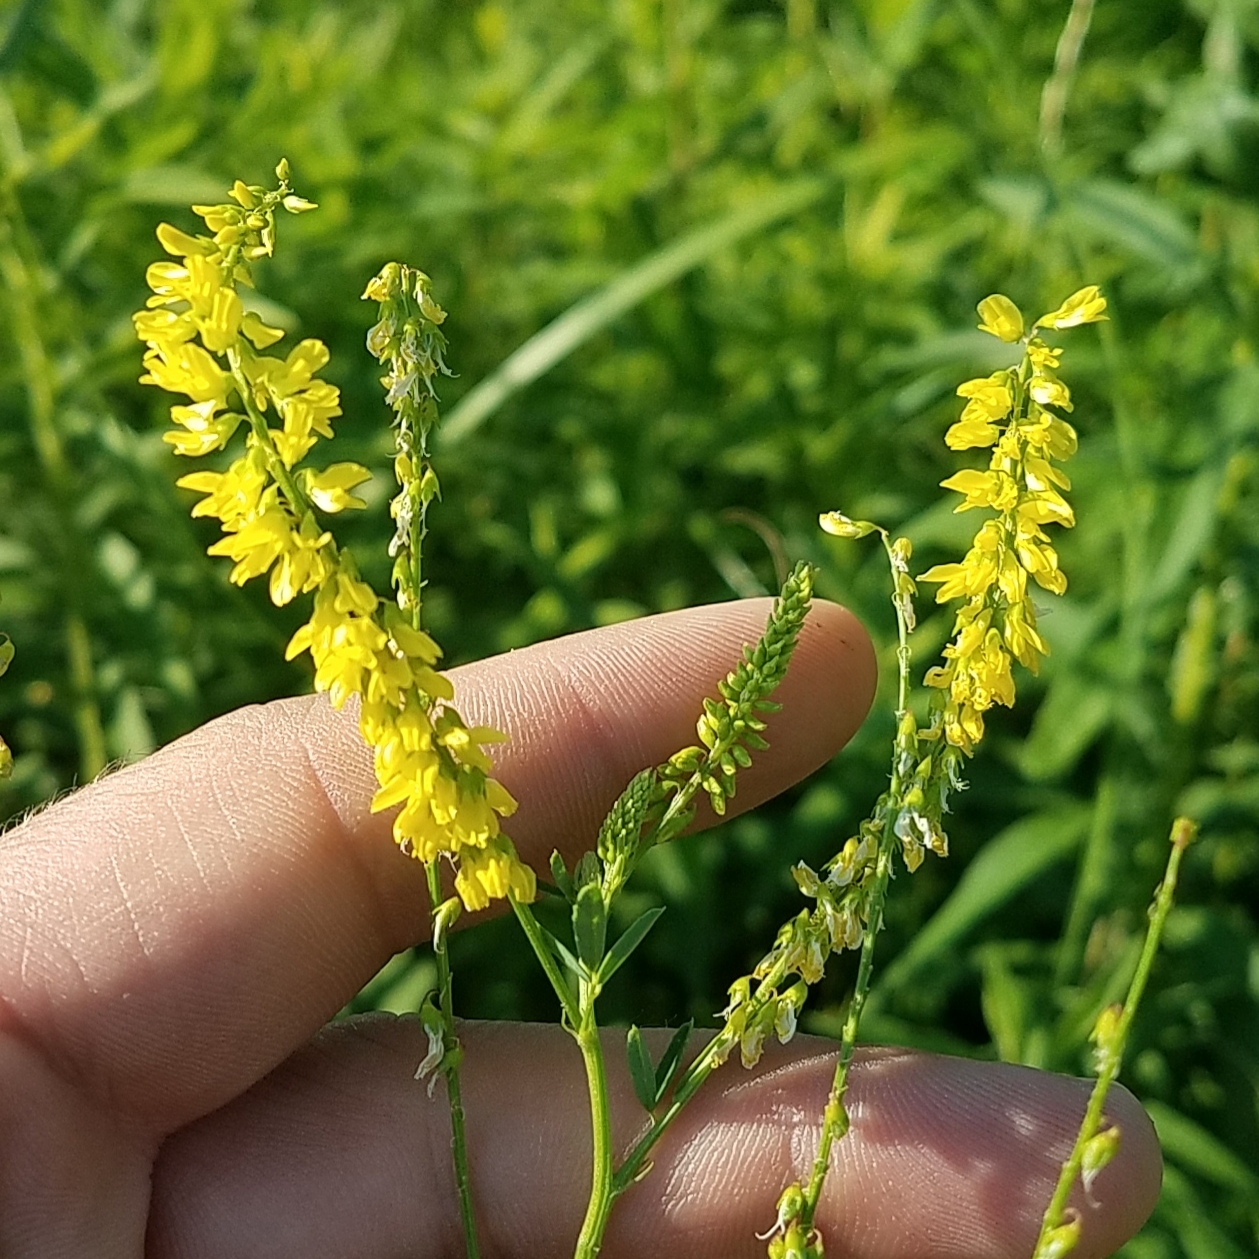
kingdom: Plantae
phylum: Tracheophyta
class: Magnoliopsida
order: Fabales
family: Fabaceae
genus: Melilotus
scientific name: Melilotus officinalis
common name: Sweetclover
